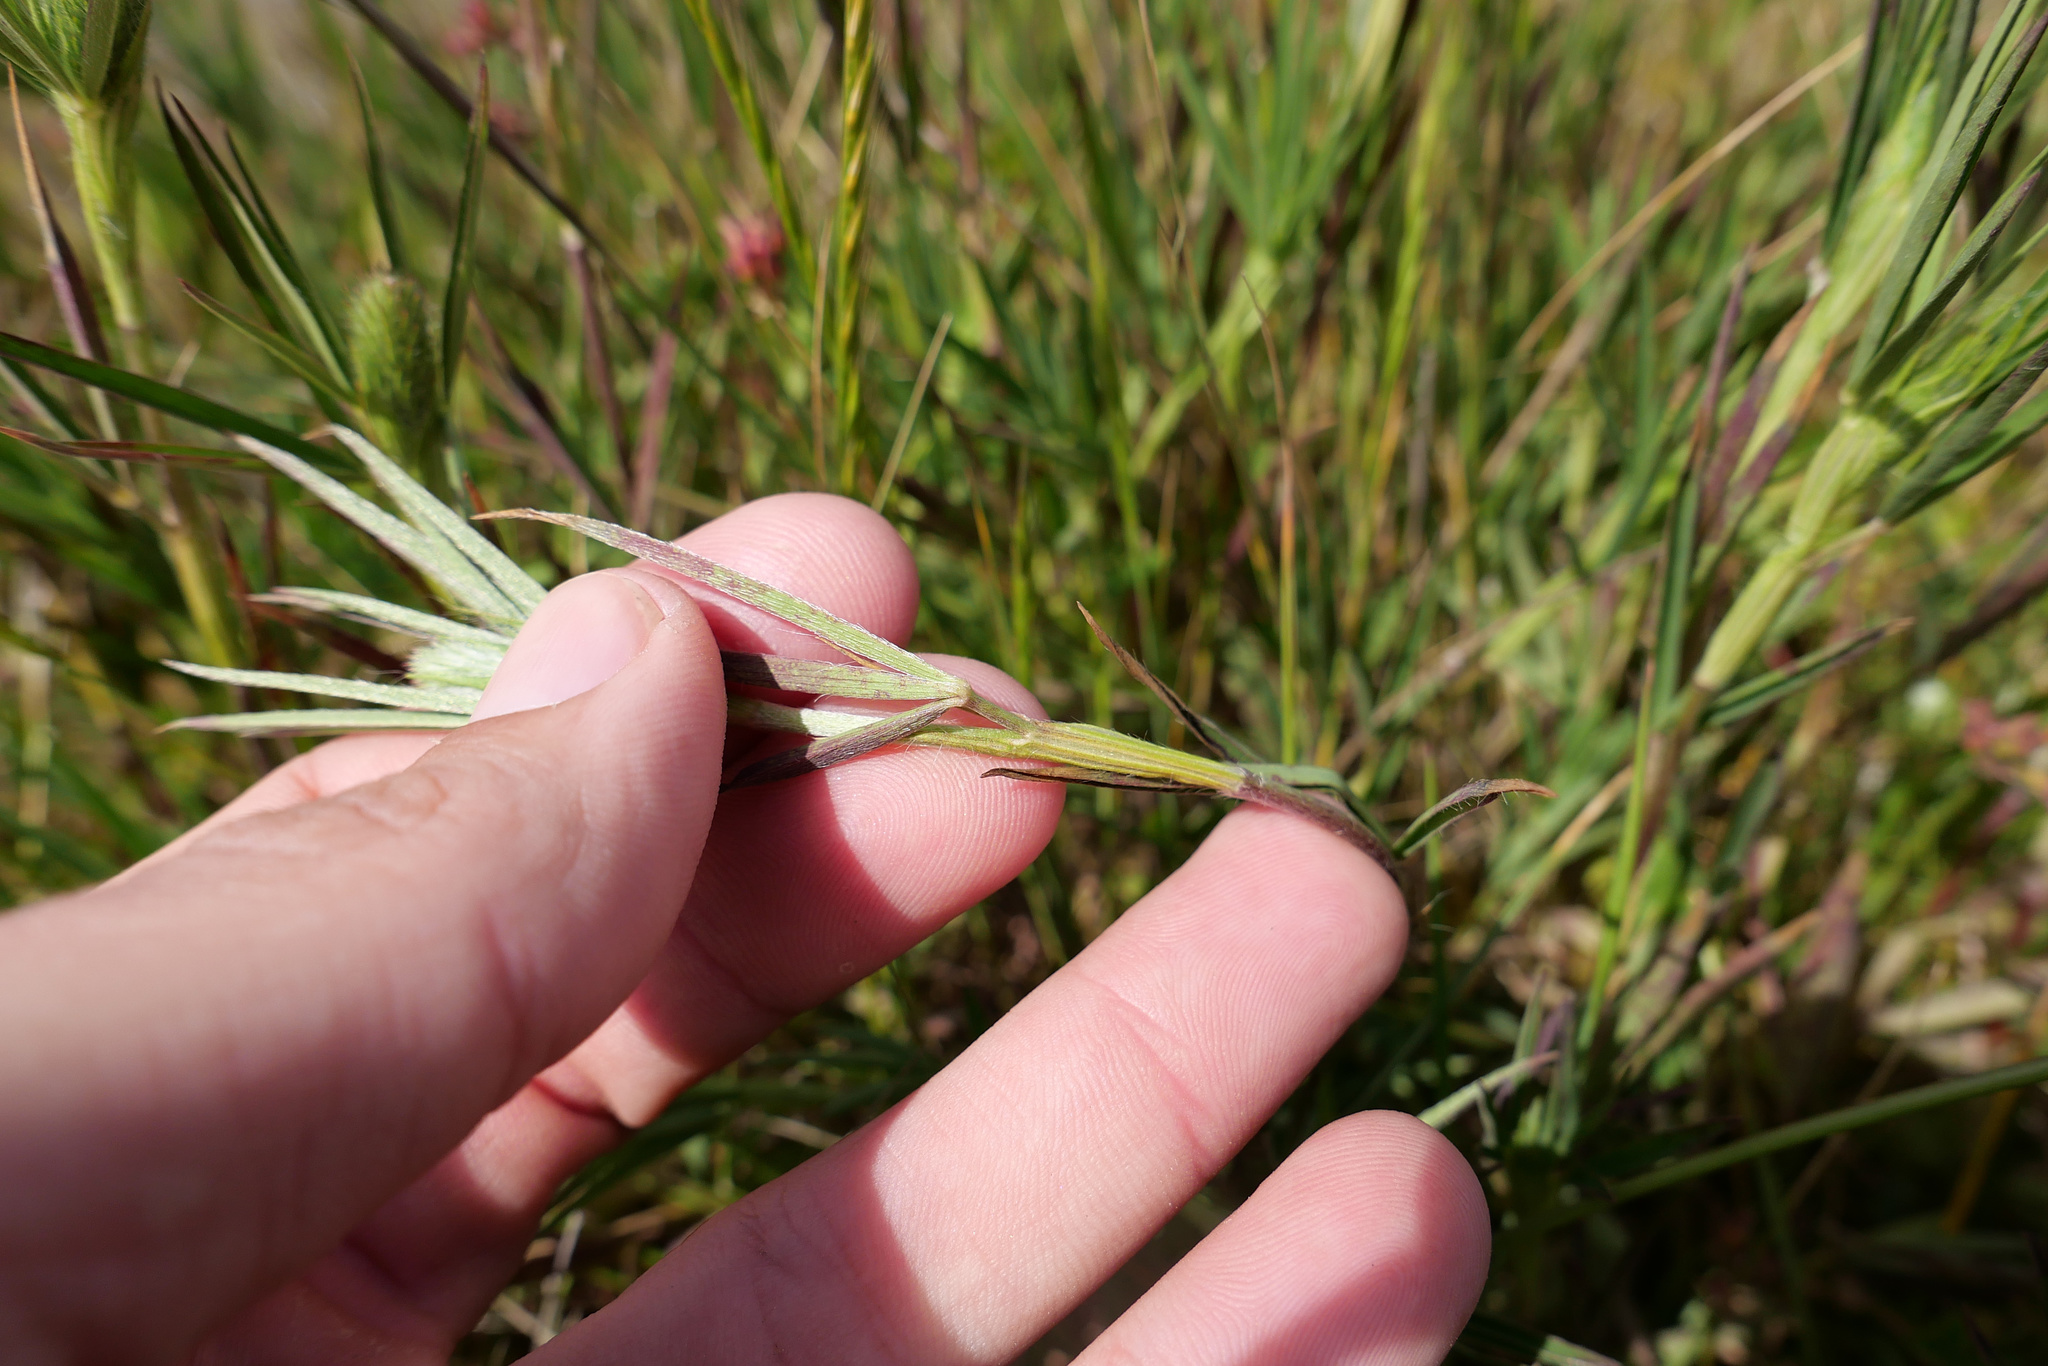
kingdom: Plantae
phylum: Tracheophyta
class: Magnoliopsida
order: Fabales
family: Fabaceae
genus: Trifolium
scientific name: Trifolium angustifolium
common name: Narrow clover
